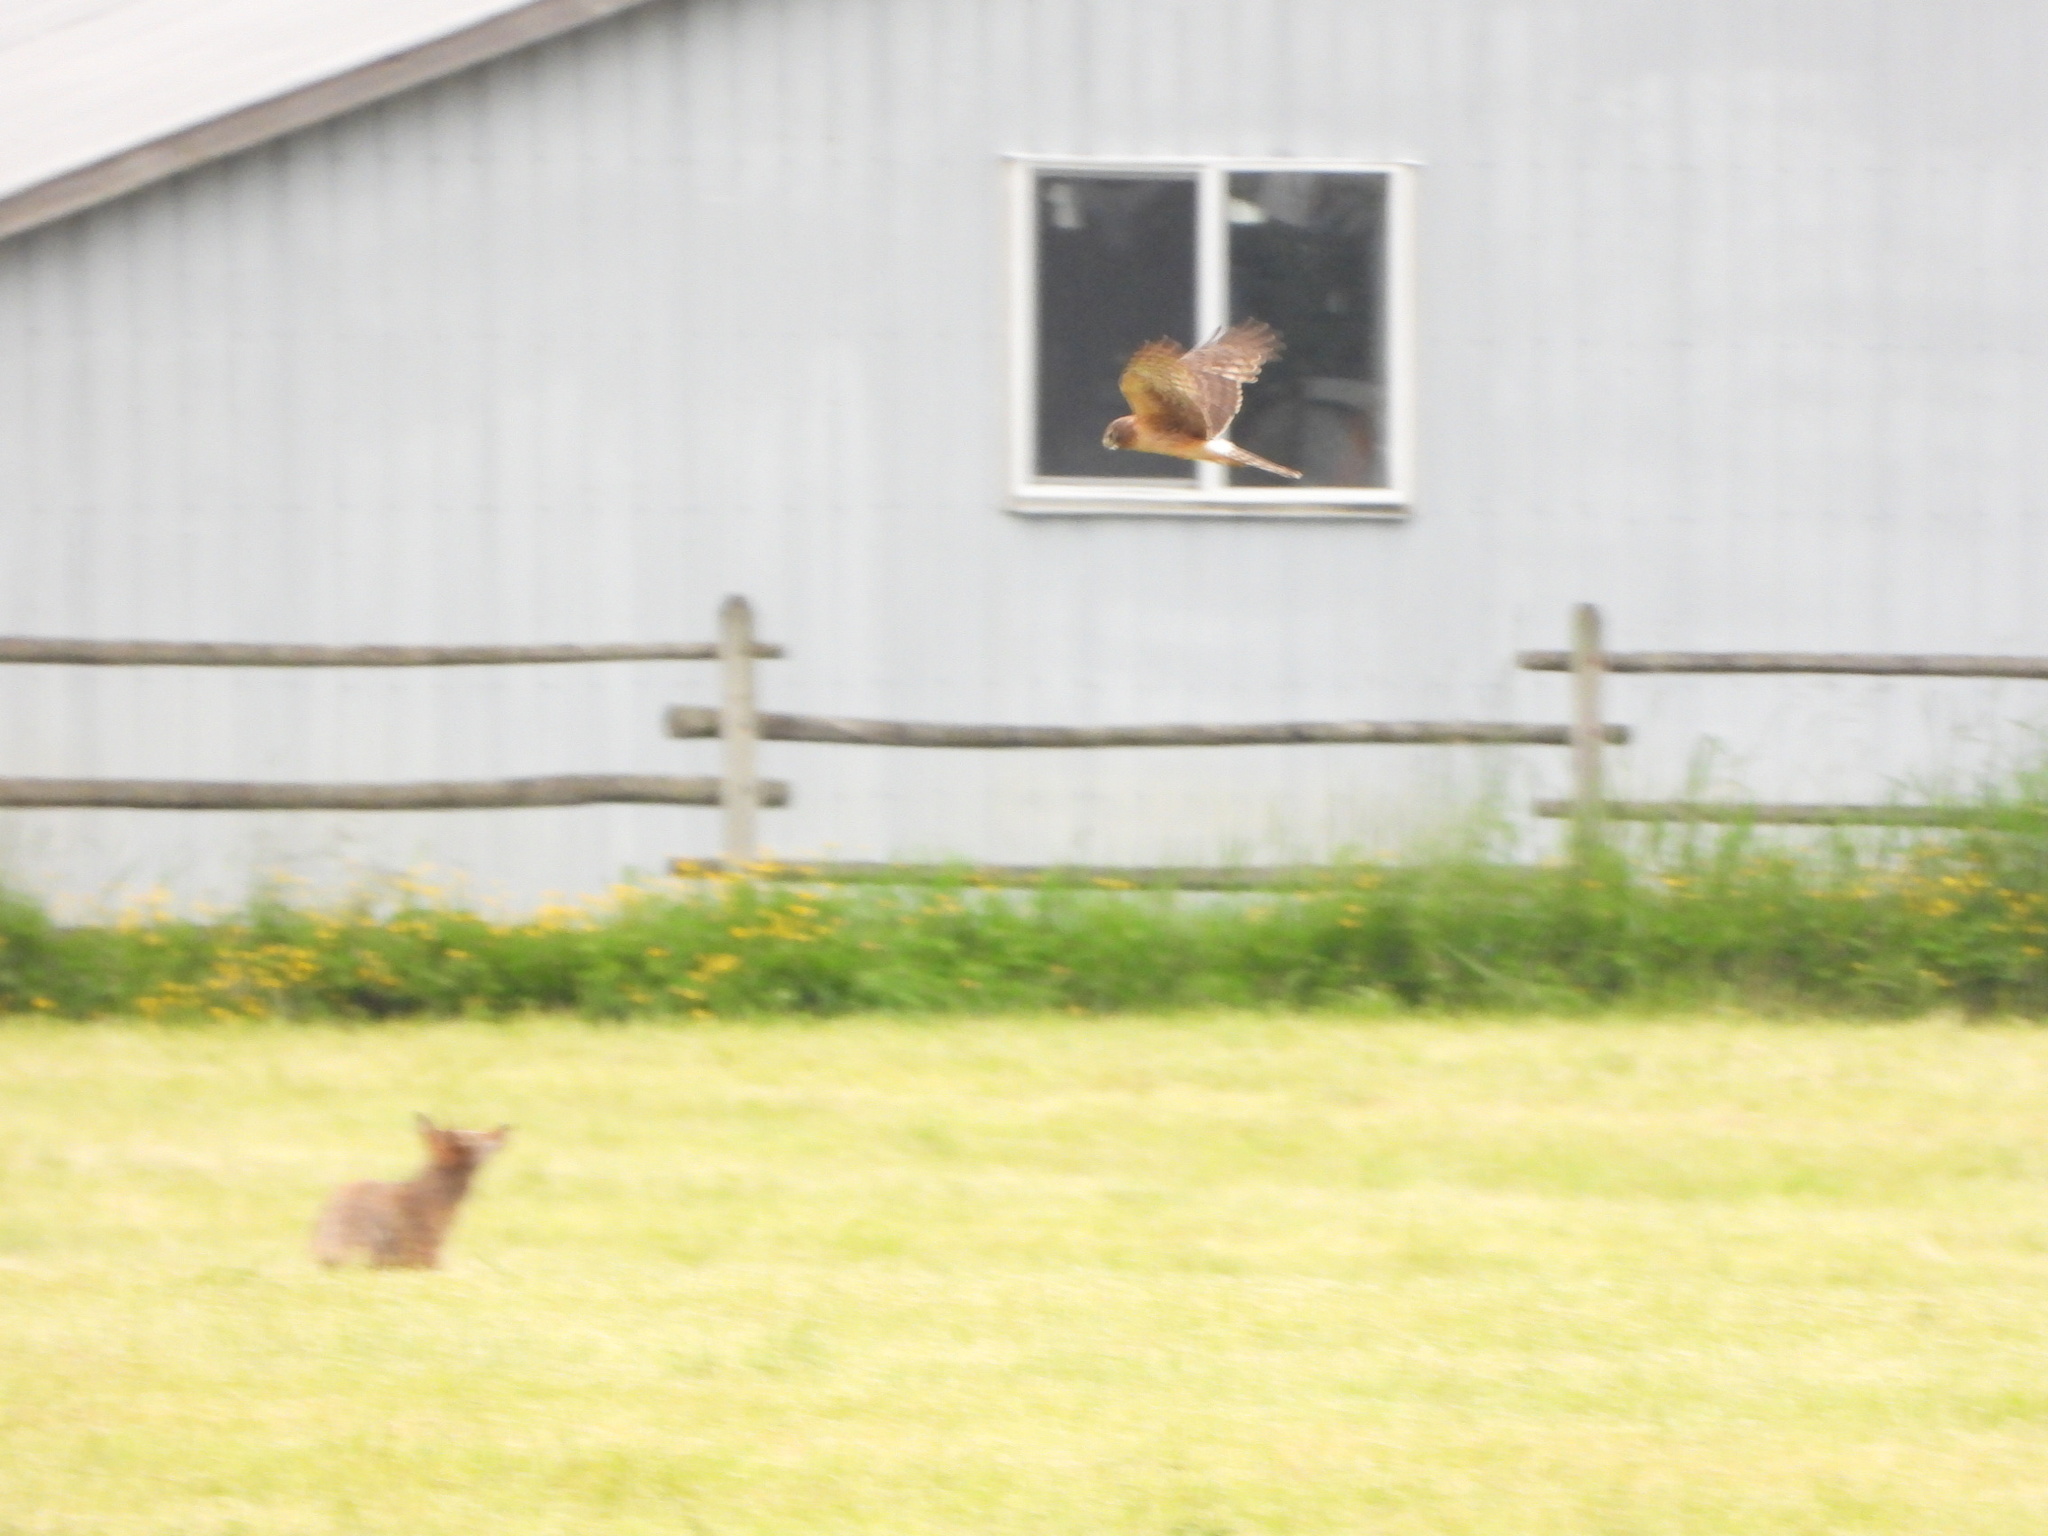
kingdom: Animalia
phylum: Chordata
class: Aves
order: Accipitriformes
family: Accipitridae
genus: Circus
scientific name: Circus cyaneus
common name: Hen harrier
